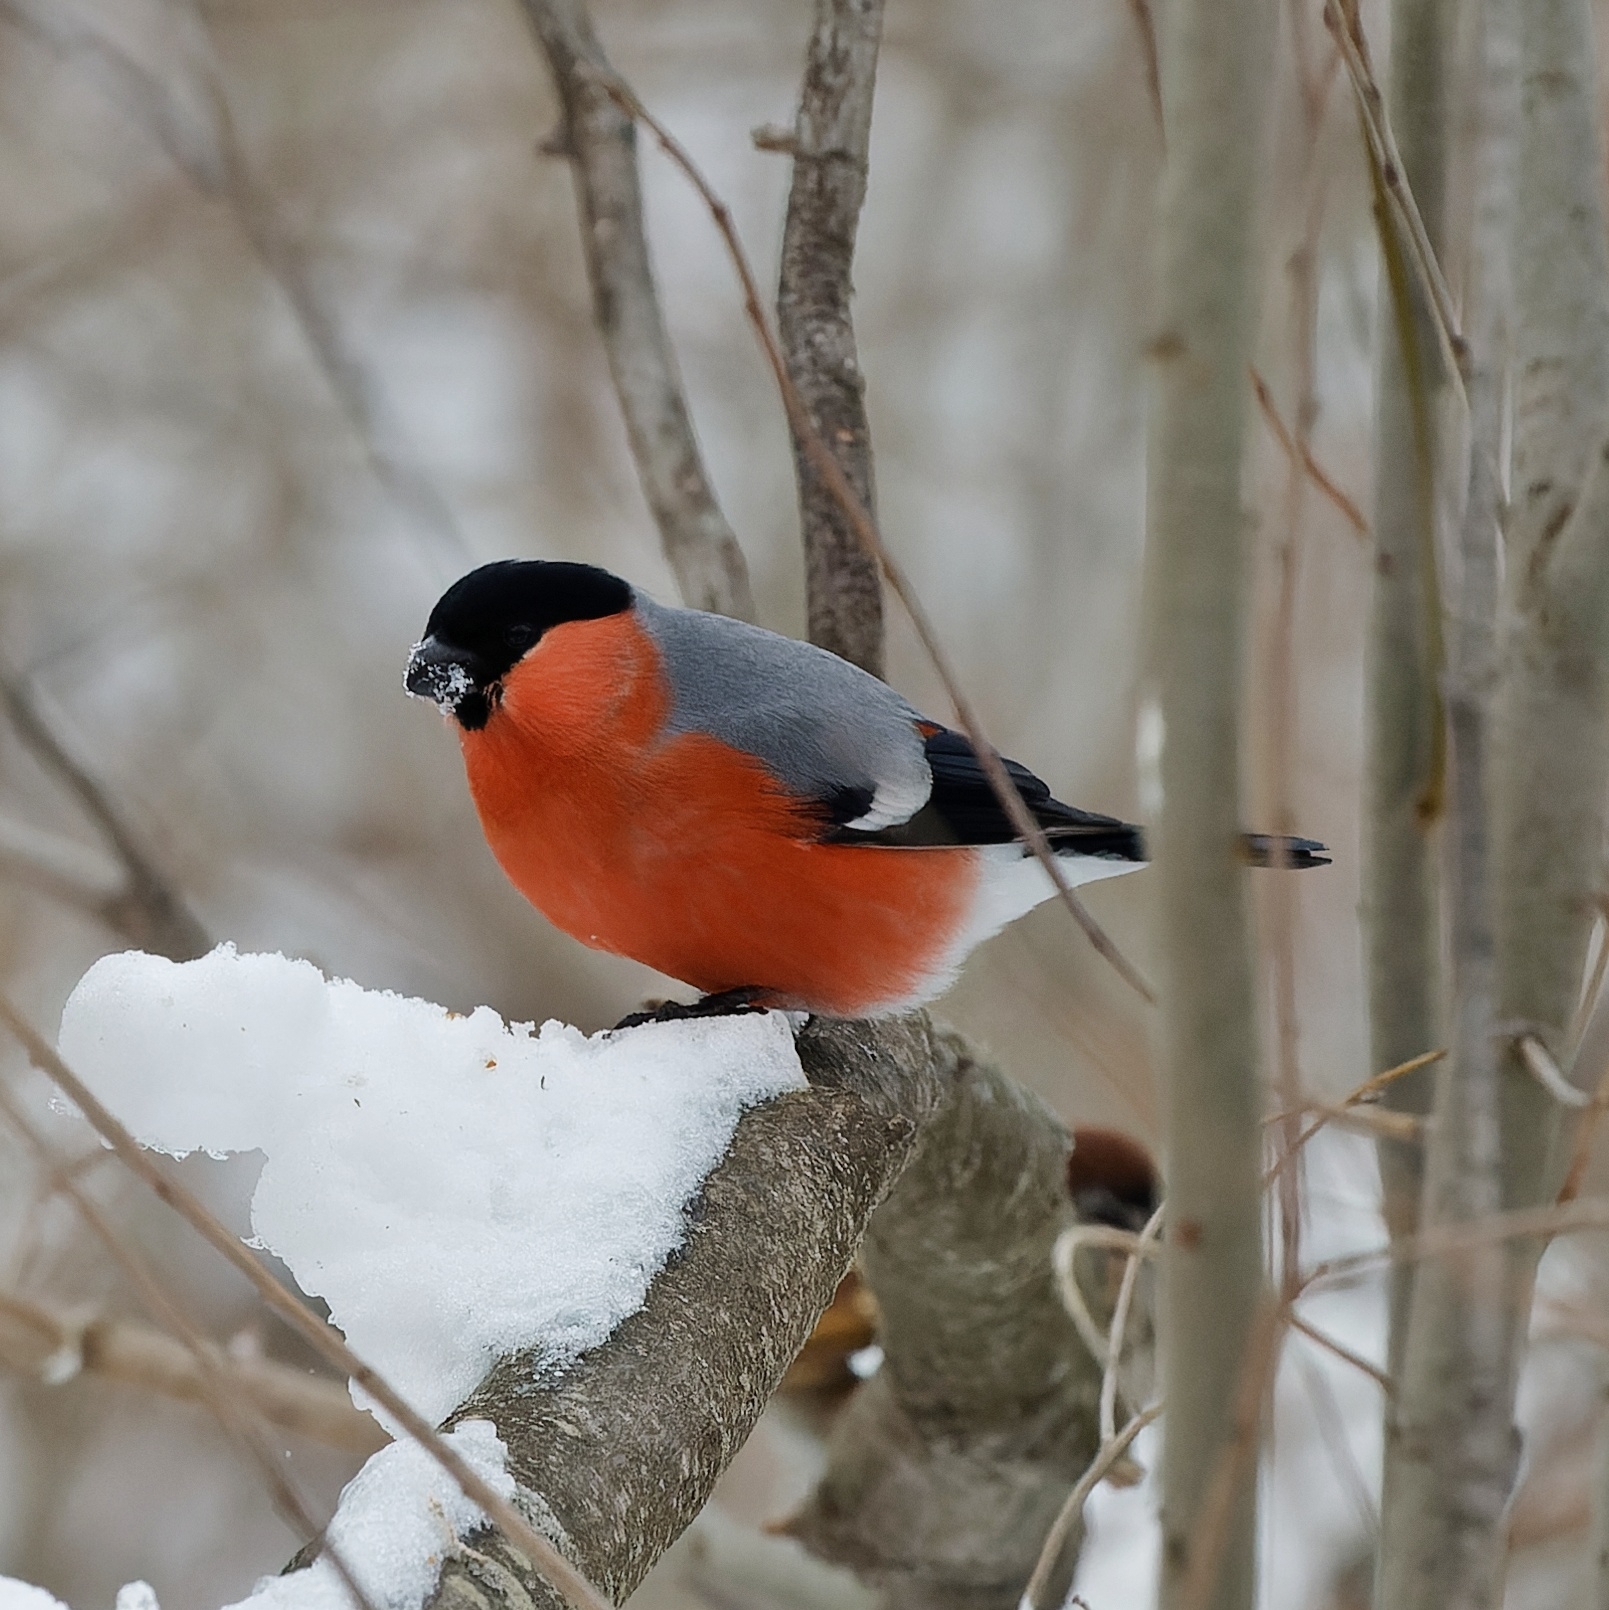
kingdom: Animalia
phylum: Chordata
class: Aves
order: Passeriformes
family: Fringillidae
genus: Pyrrhula
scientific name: Pyrrhula pyrrhula
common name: Eurasian bullfinch
